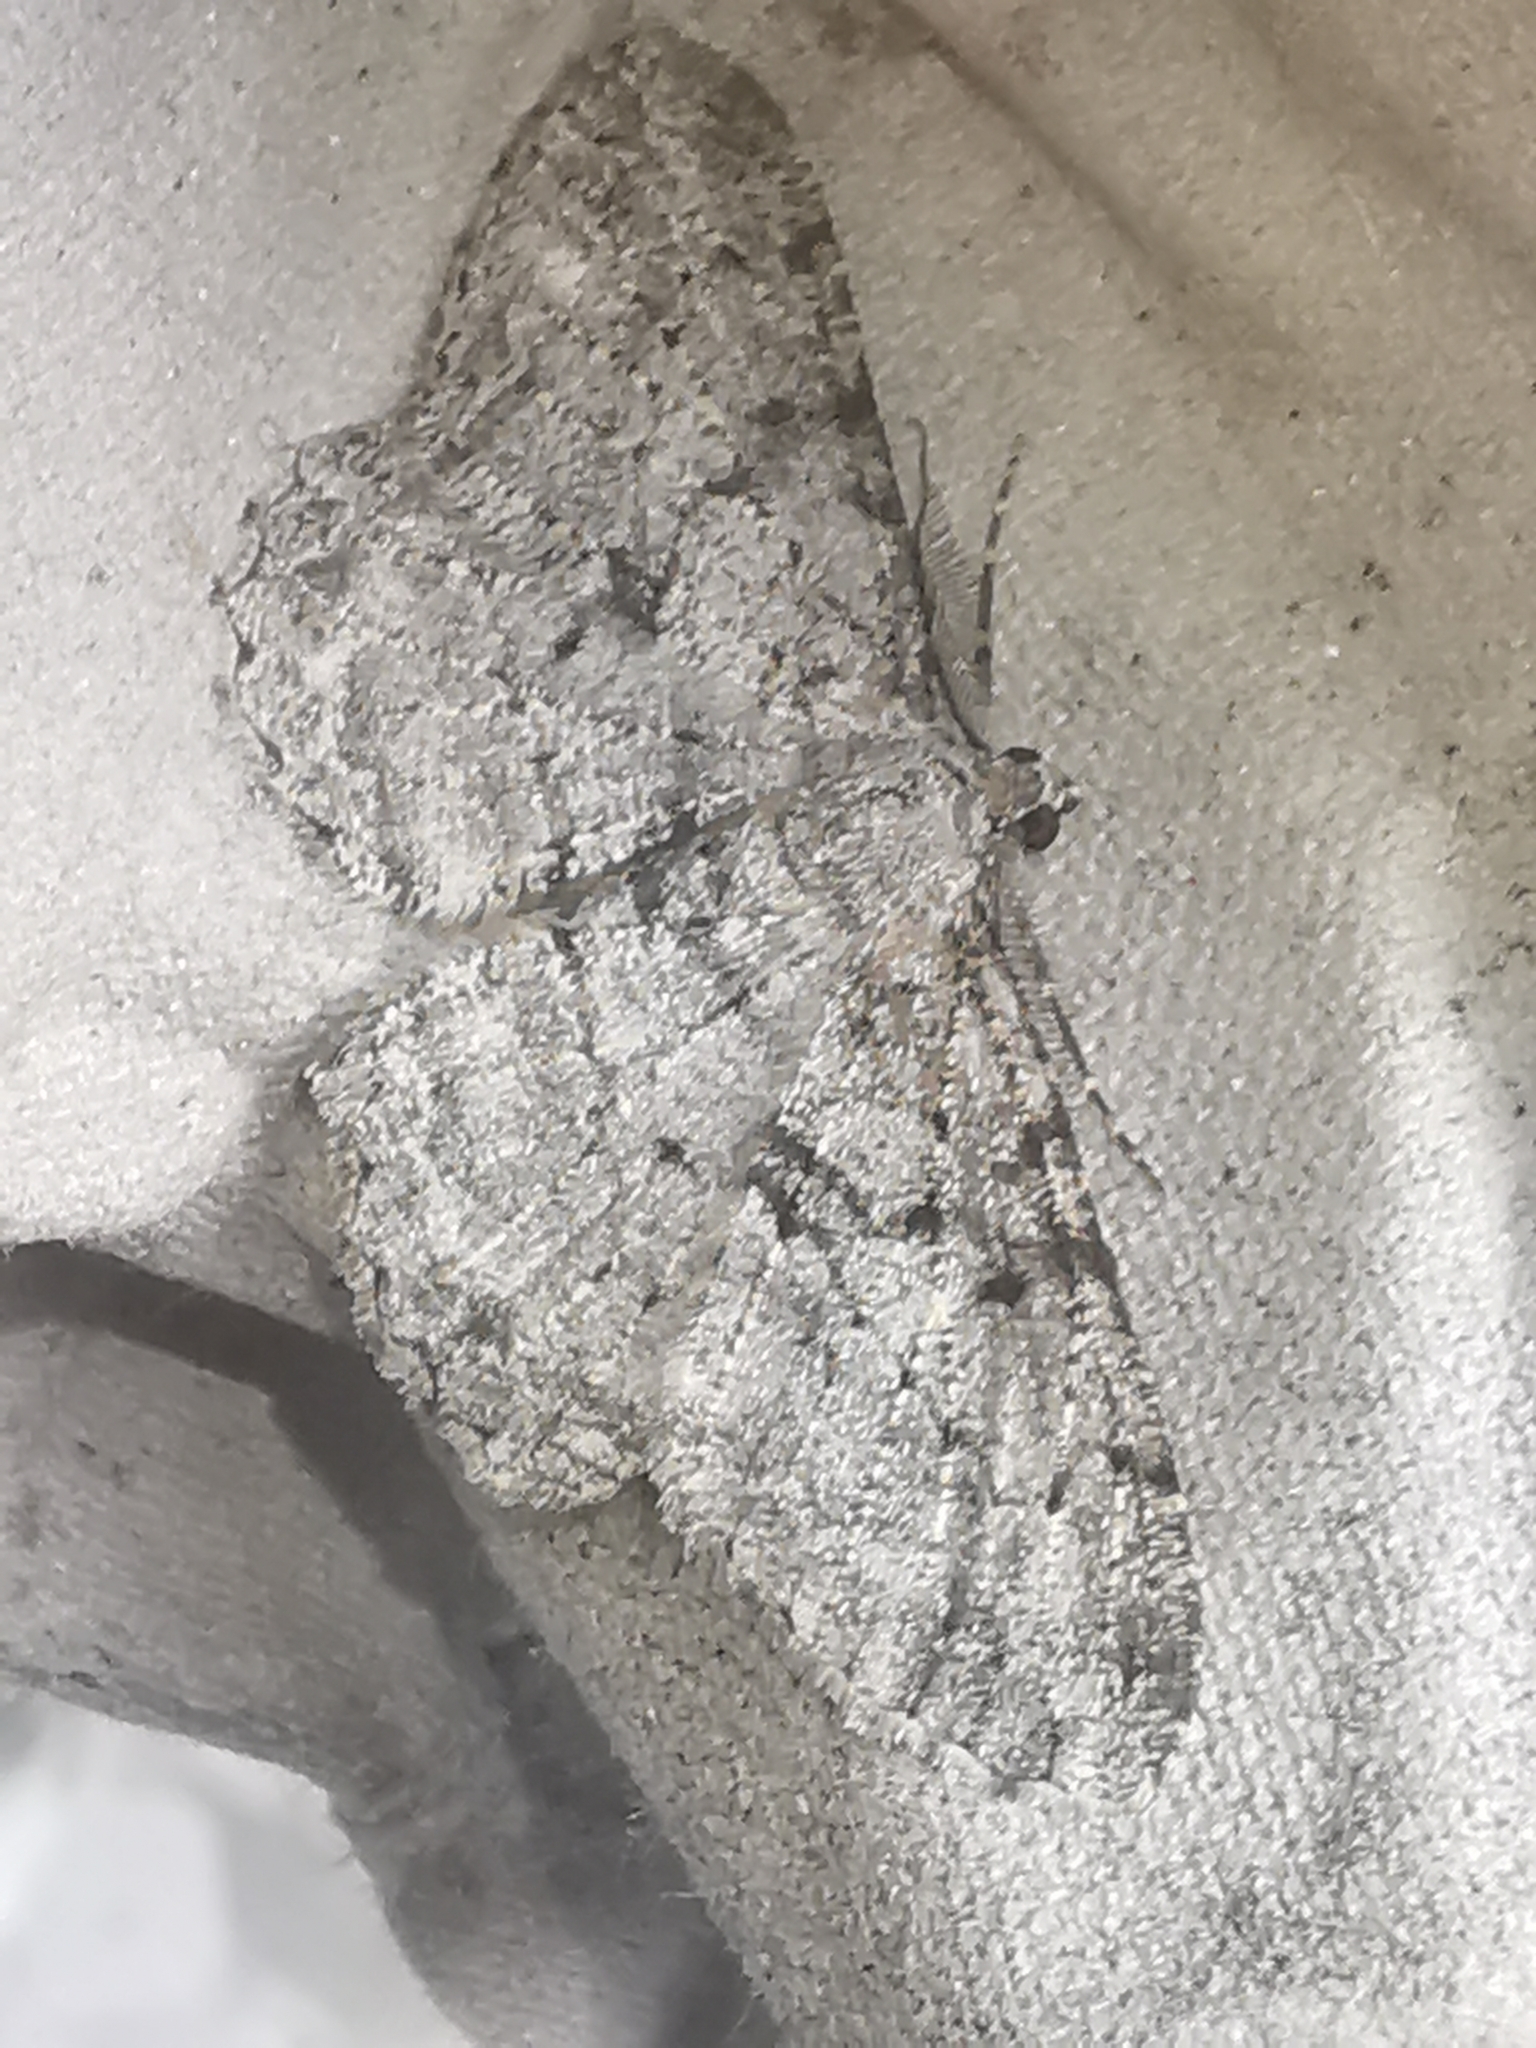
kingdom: Animalia
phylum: Arthropoda
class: Insecta
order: Lepidoptera
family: Geometridae
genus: Peribatodes
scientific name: Peribatodes rhomboidaria
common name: Willow beauty
